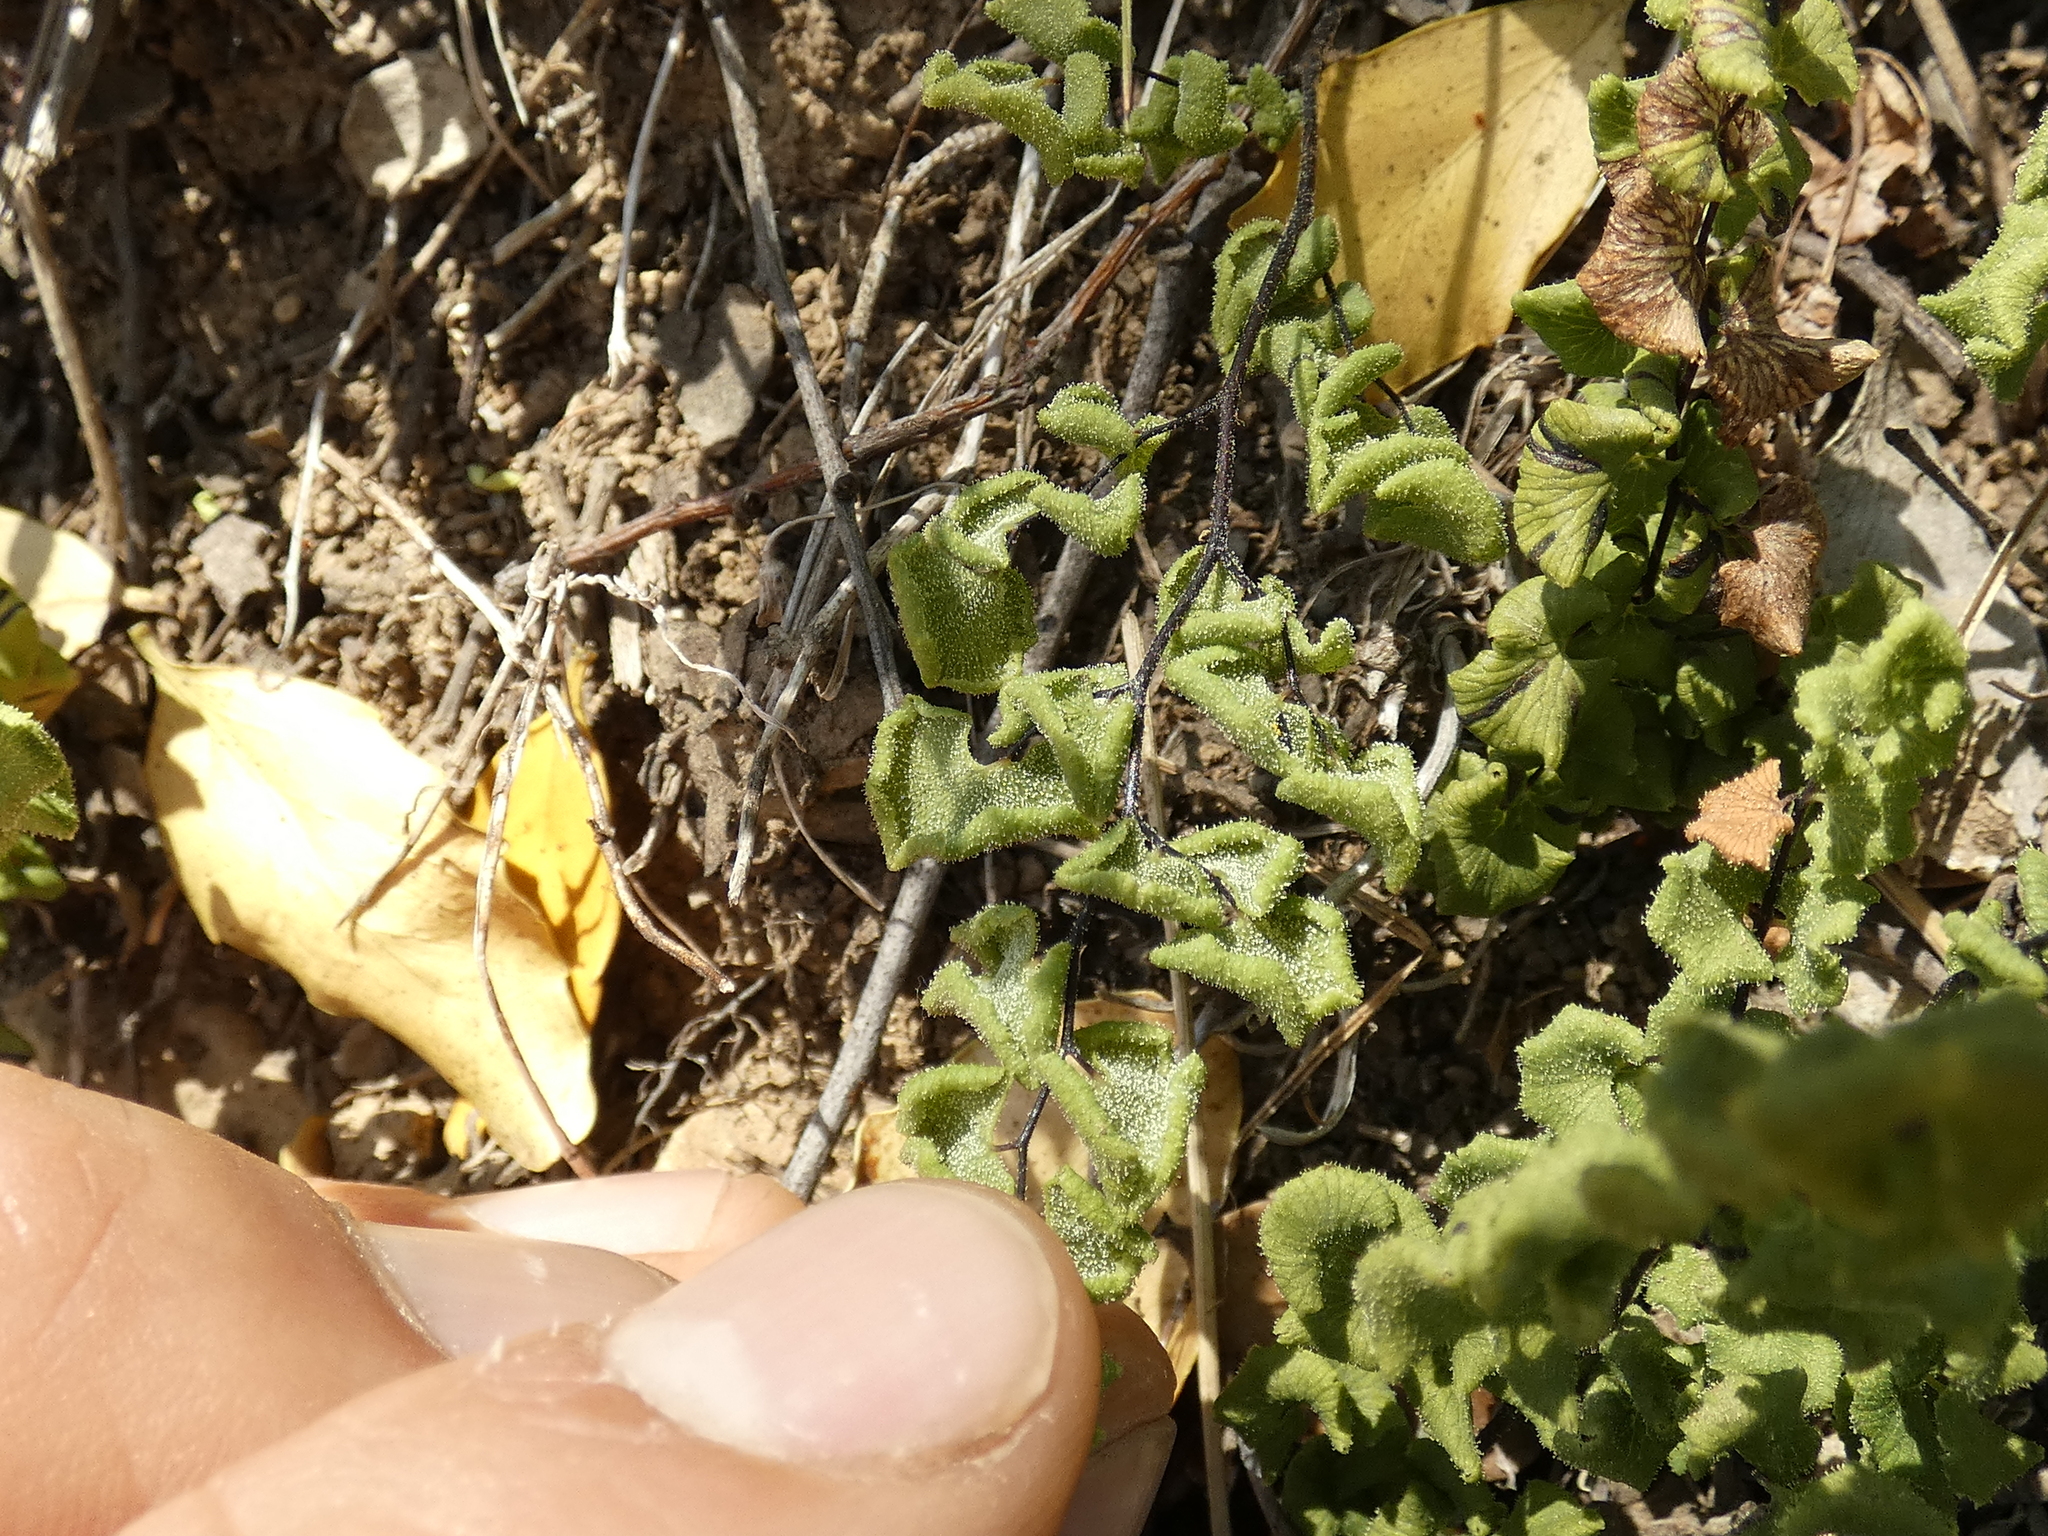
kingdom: Plantae
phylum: Tracheophyta
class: Polypodiopsida
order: Polypodiales
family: Pteridaceae
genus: Adiantum
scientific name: Adiantum chilense
